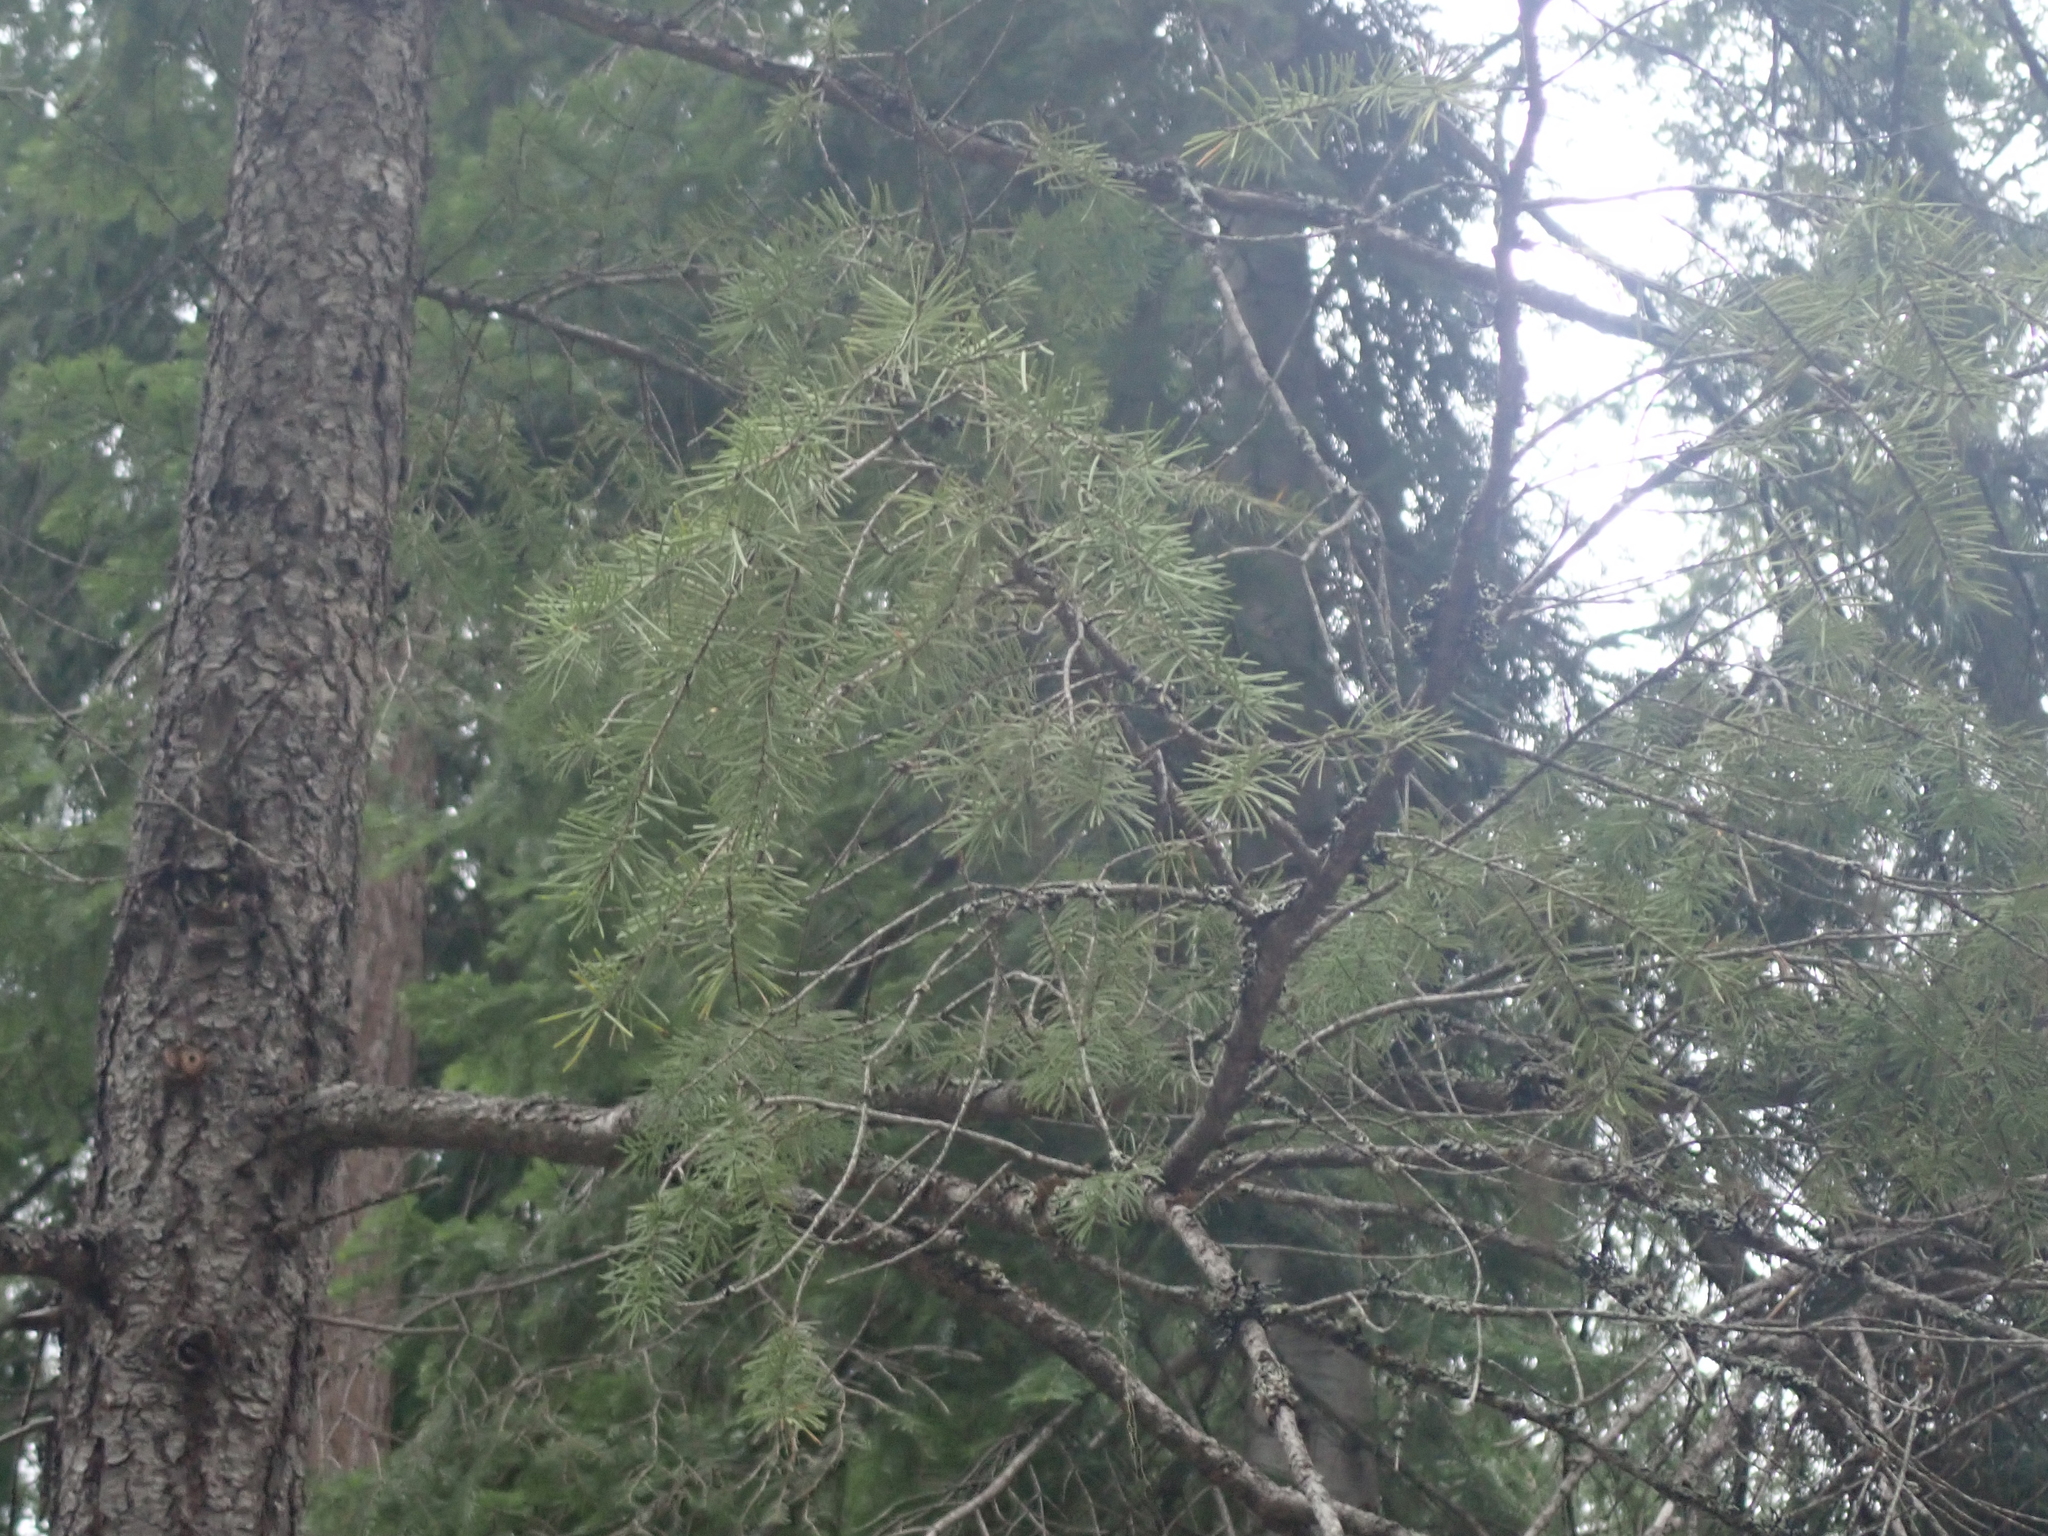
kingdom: Plantae
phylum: Tracheophyta
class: Pinopsida
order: Pinales
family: Pinaceae
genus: Pseudotsuga
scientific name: Pseudotsuga menziesii
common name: Douglas fir
